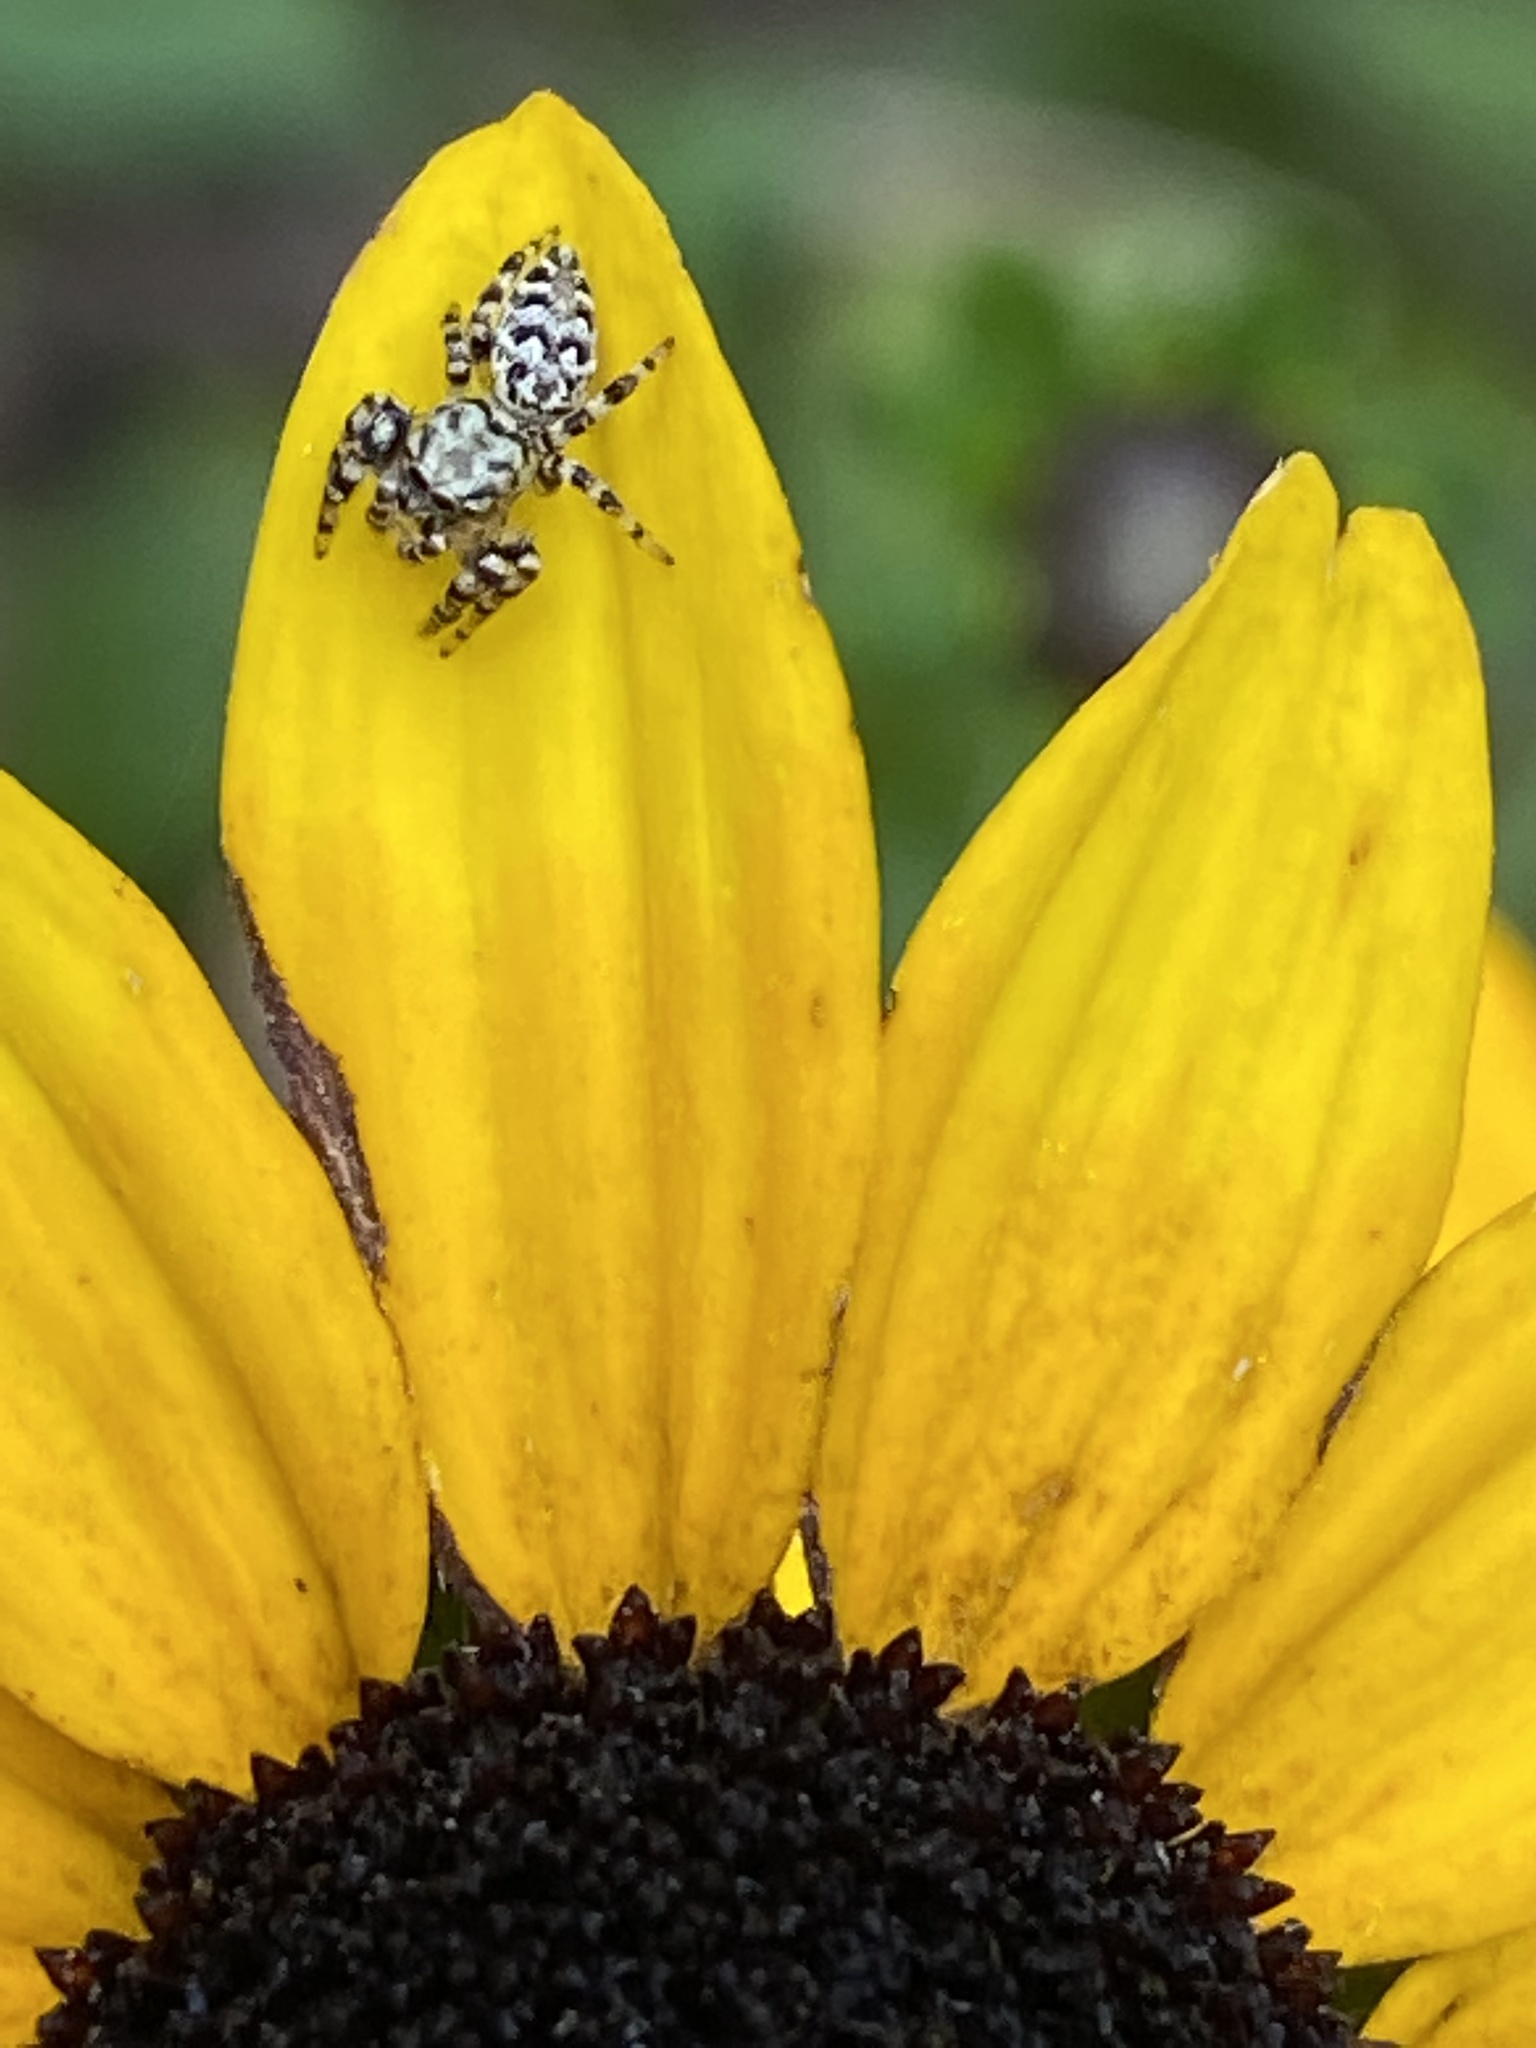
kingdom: Animalia
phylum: Arthropoda
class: Arachnida
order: Araneae
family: Salticidae
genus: Pelegrina
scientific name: Pelegrina galathea
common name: Jumping spiders
